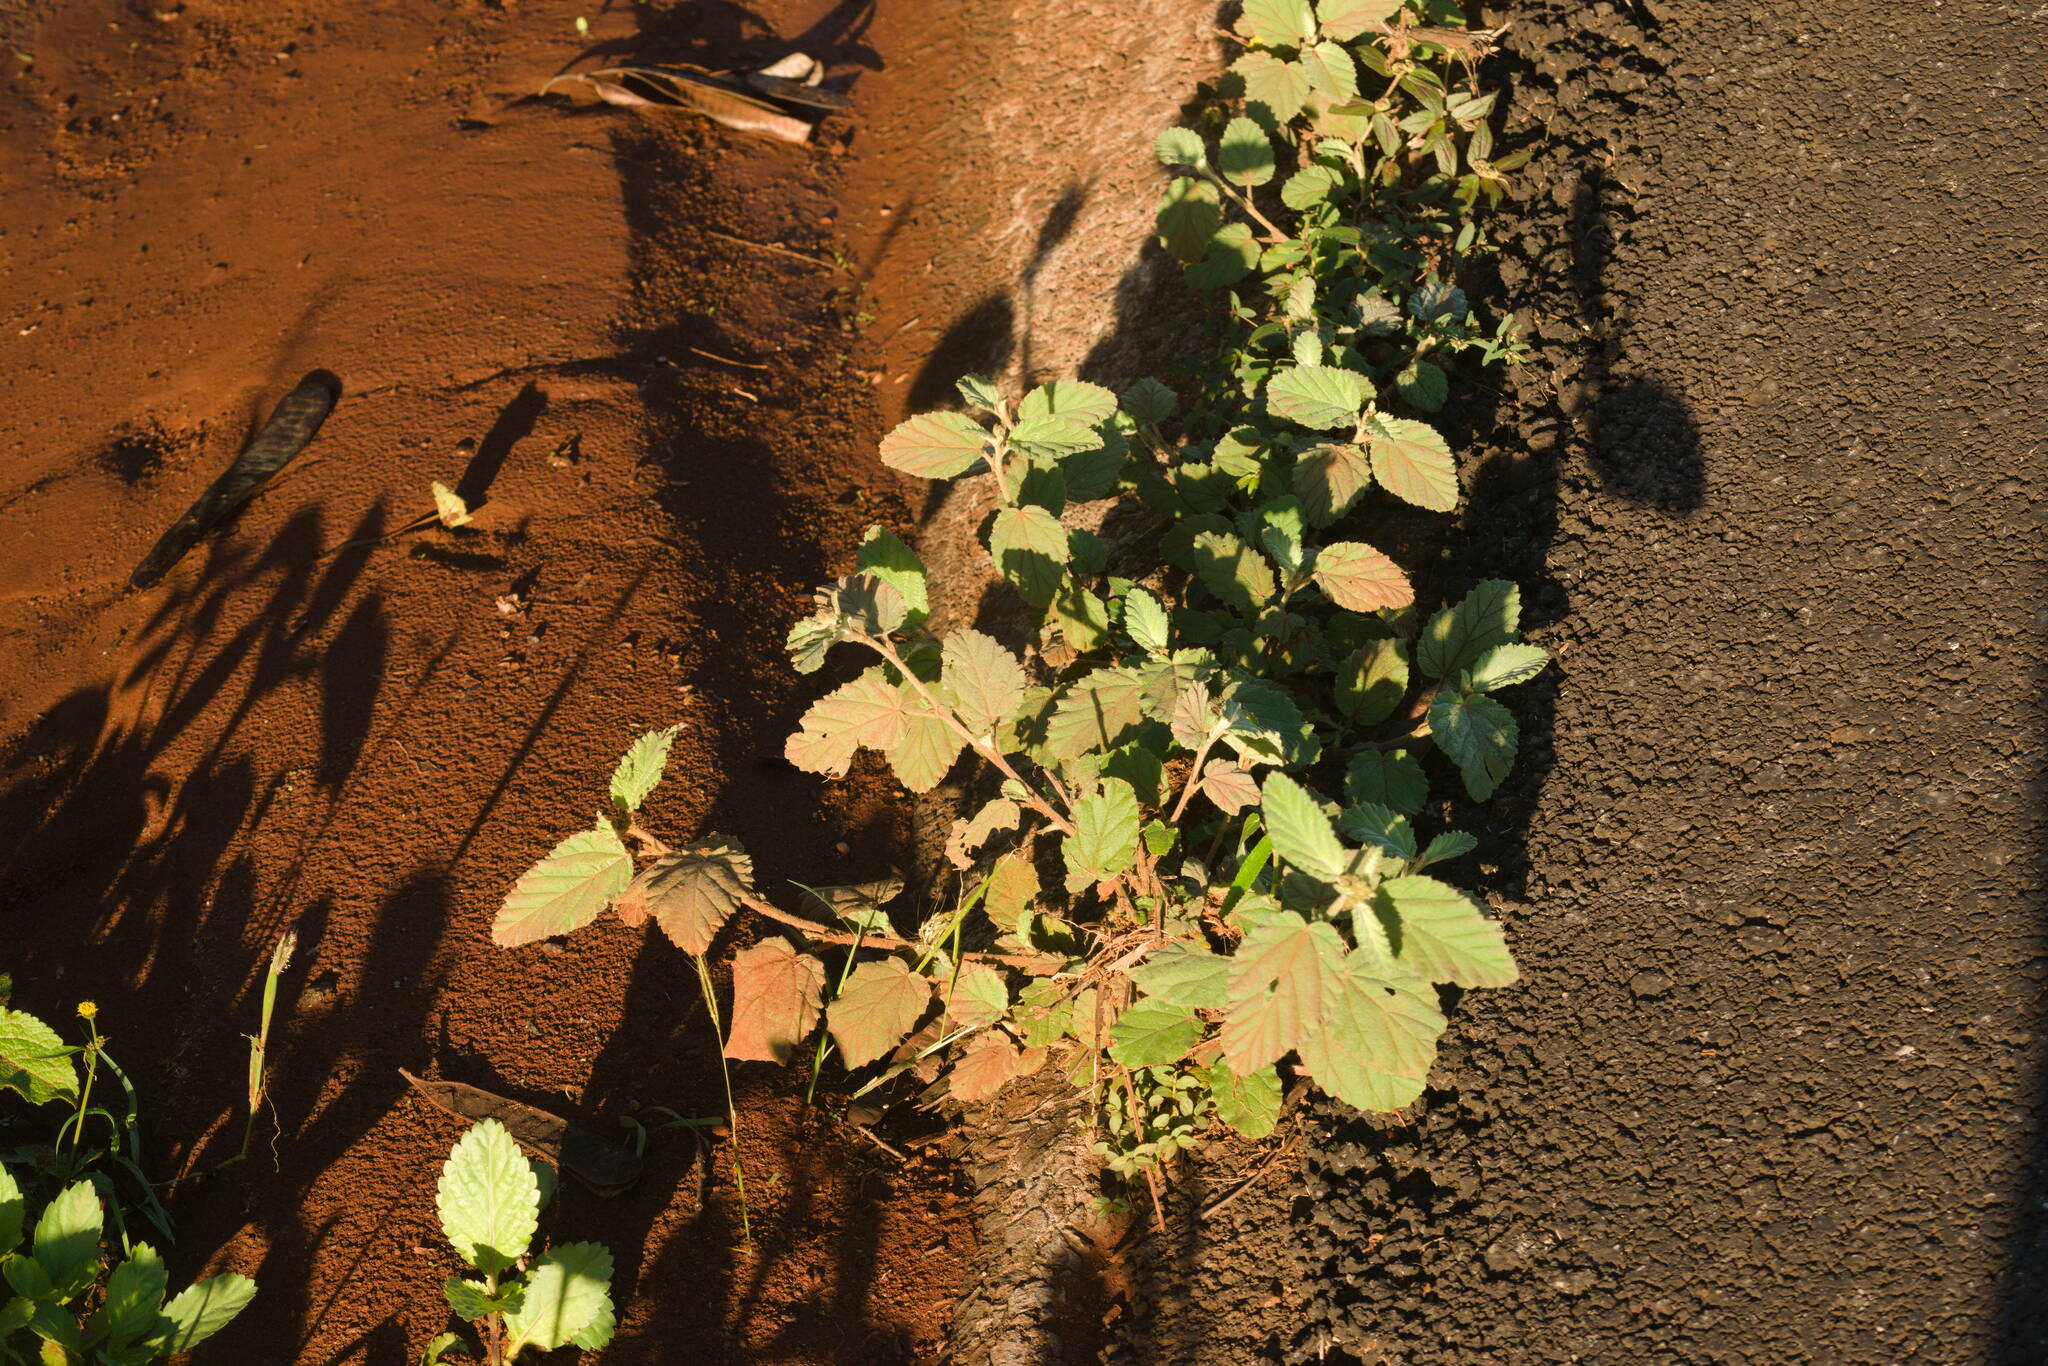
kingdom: Plantae
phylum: Tracheophyta
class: Magnoliopsida
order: Malvales
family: Malvaceae
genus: Waltheria
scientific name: Waltheria indica
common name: Leather-coat
